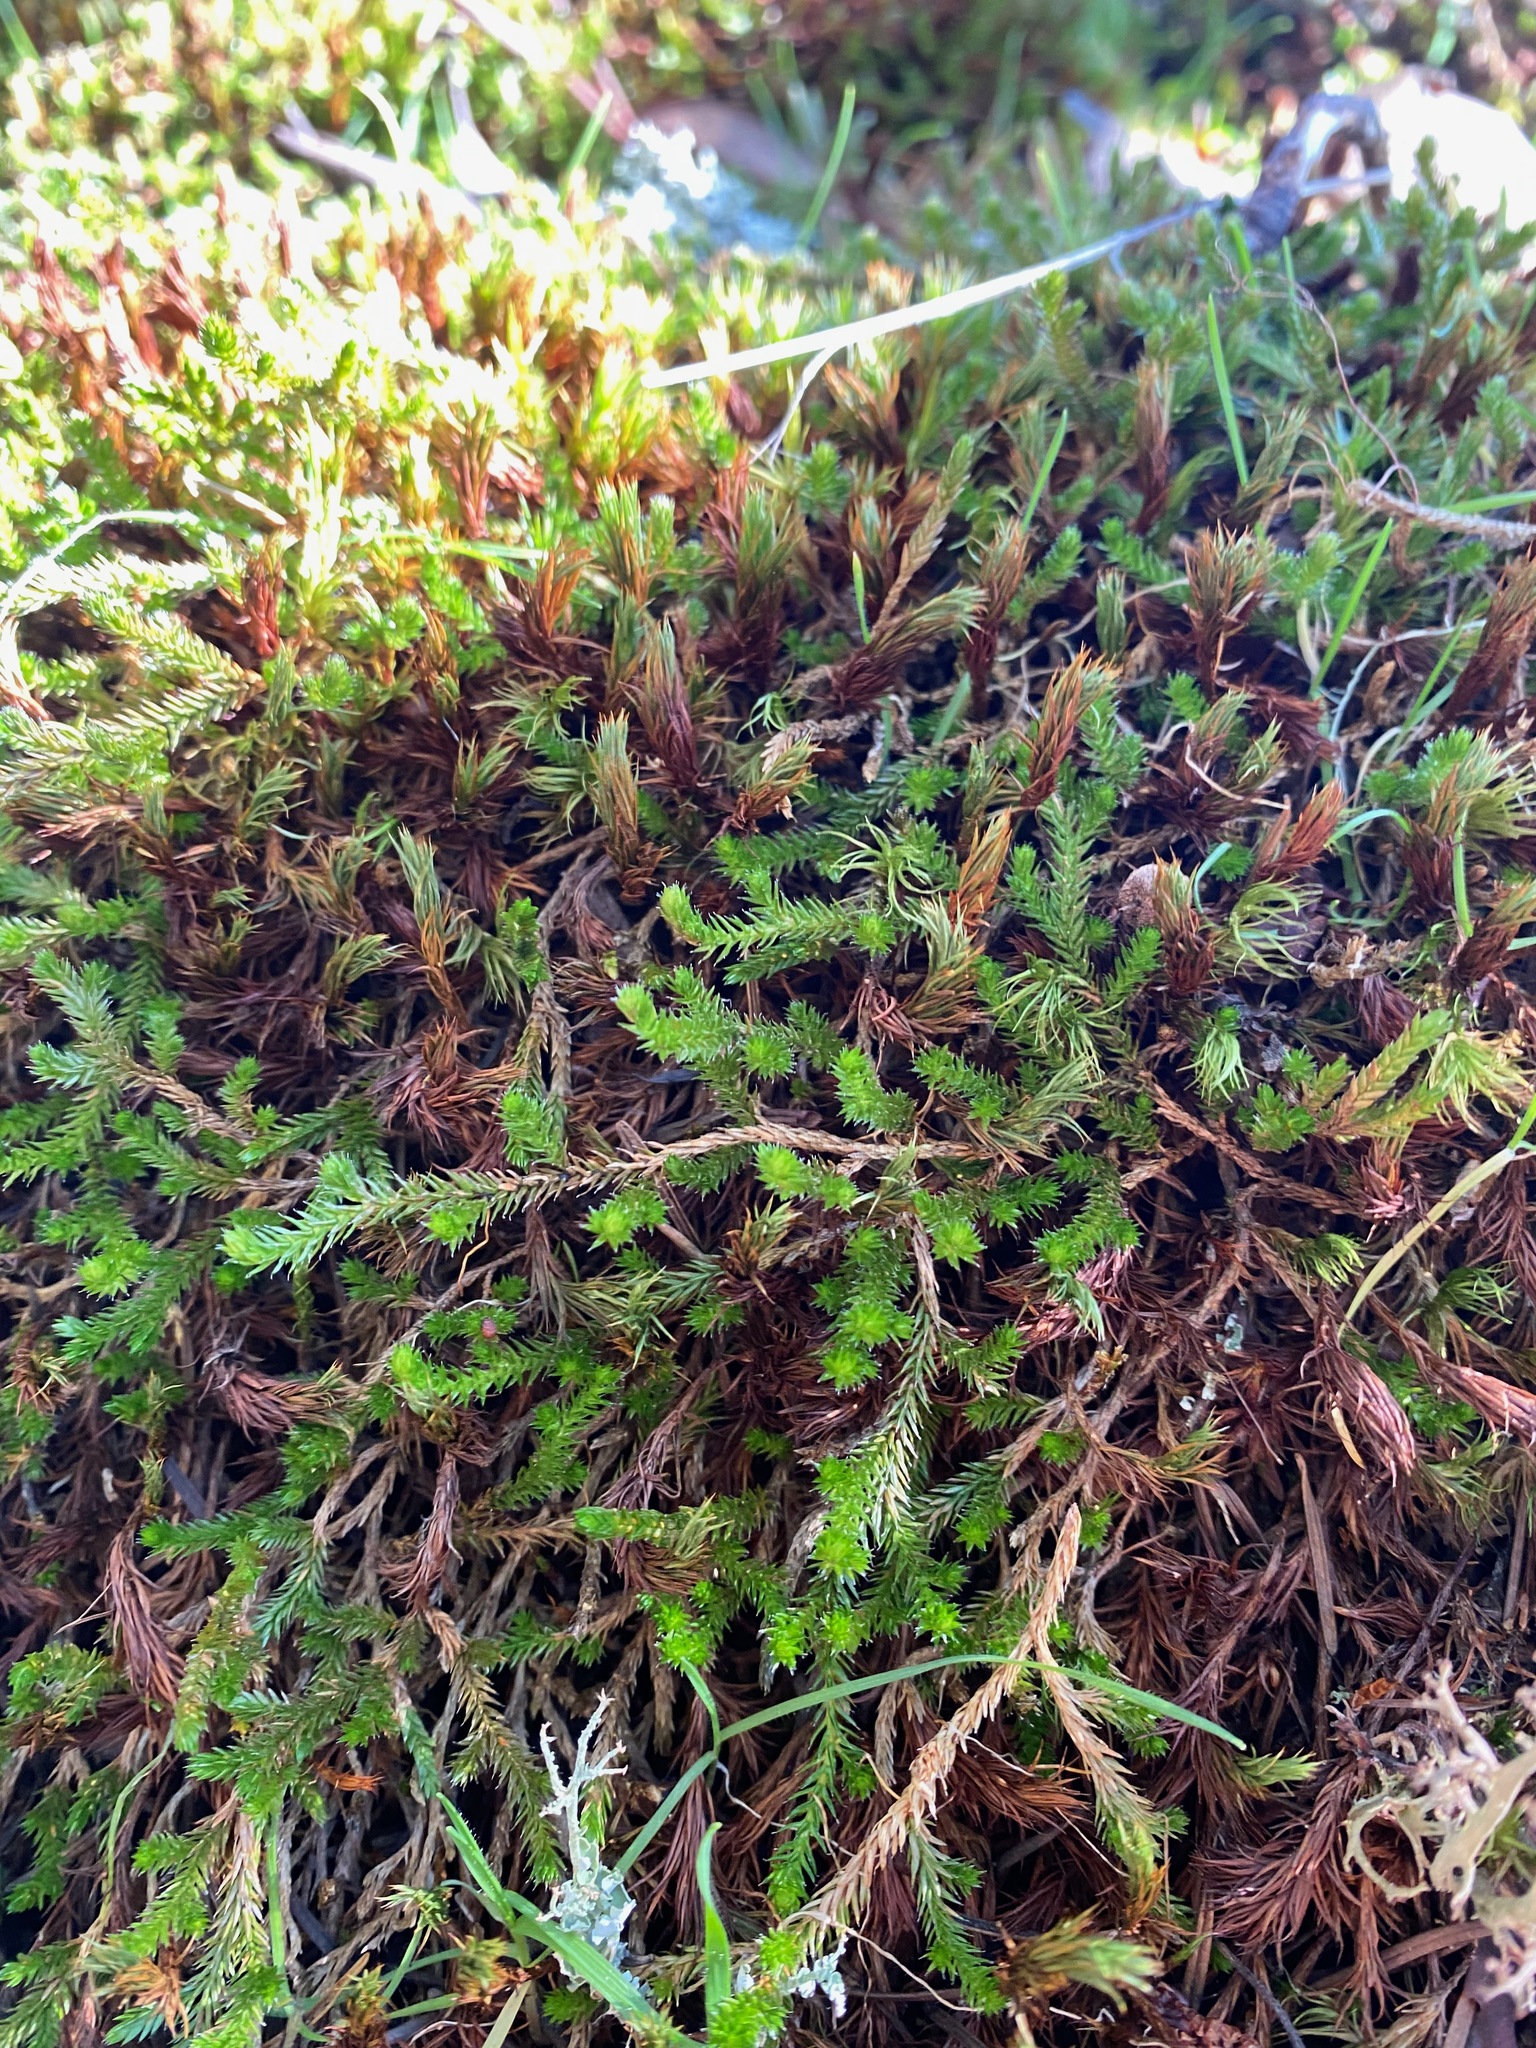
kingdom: Plantae
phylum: Tracheophyta
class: Lycopodiopsida
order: Selaginellales
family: Selaginellaceae
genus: Selaginella
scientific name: Selaginella wallacei
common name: Wallace's selaginella
